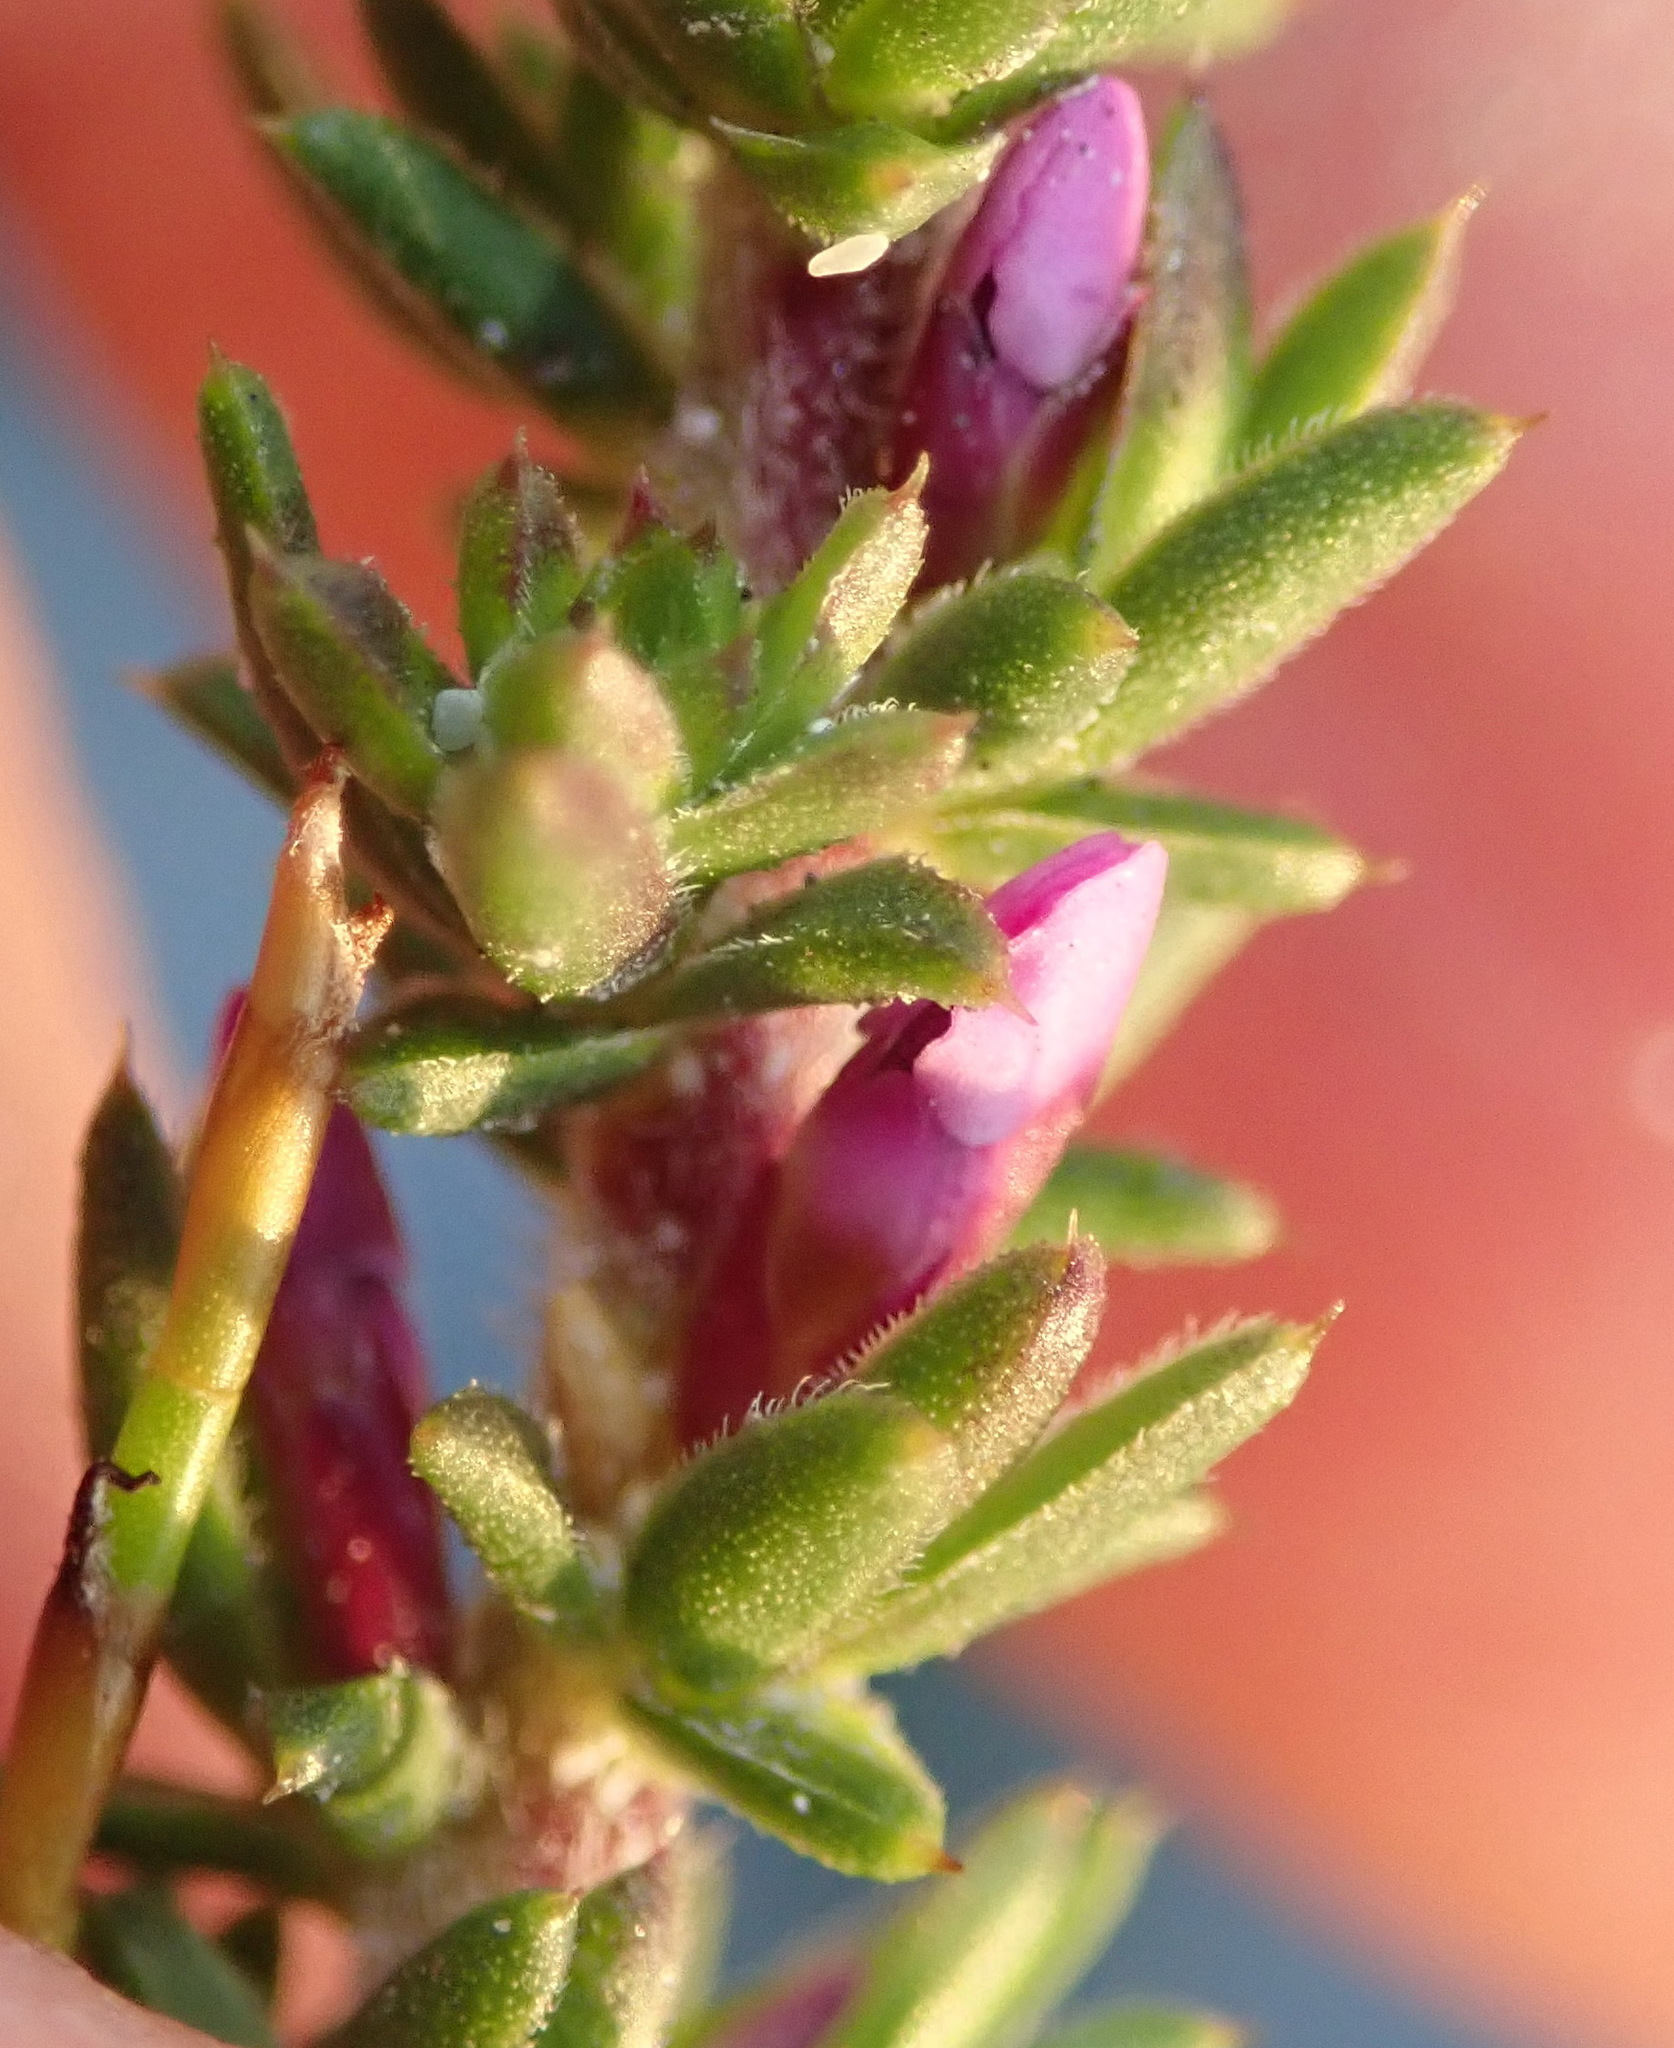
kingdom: Plantae
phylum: Tracheophyta
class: Magnoliopsida
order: Fabales
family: Polygalaceae
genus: Muraltia
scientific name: Muraltia satureioides
